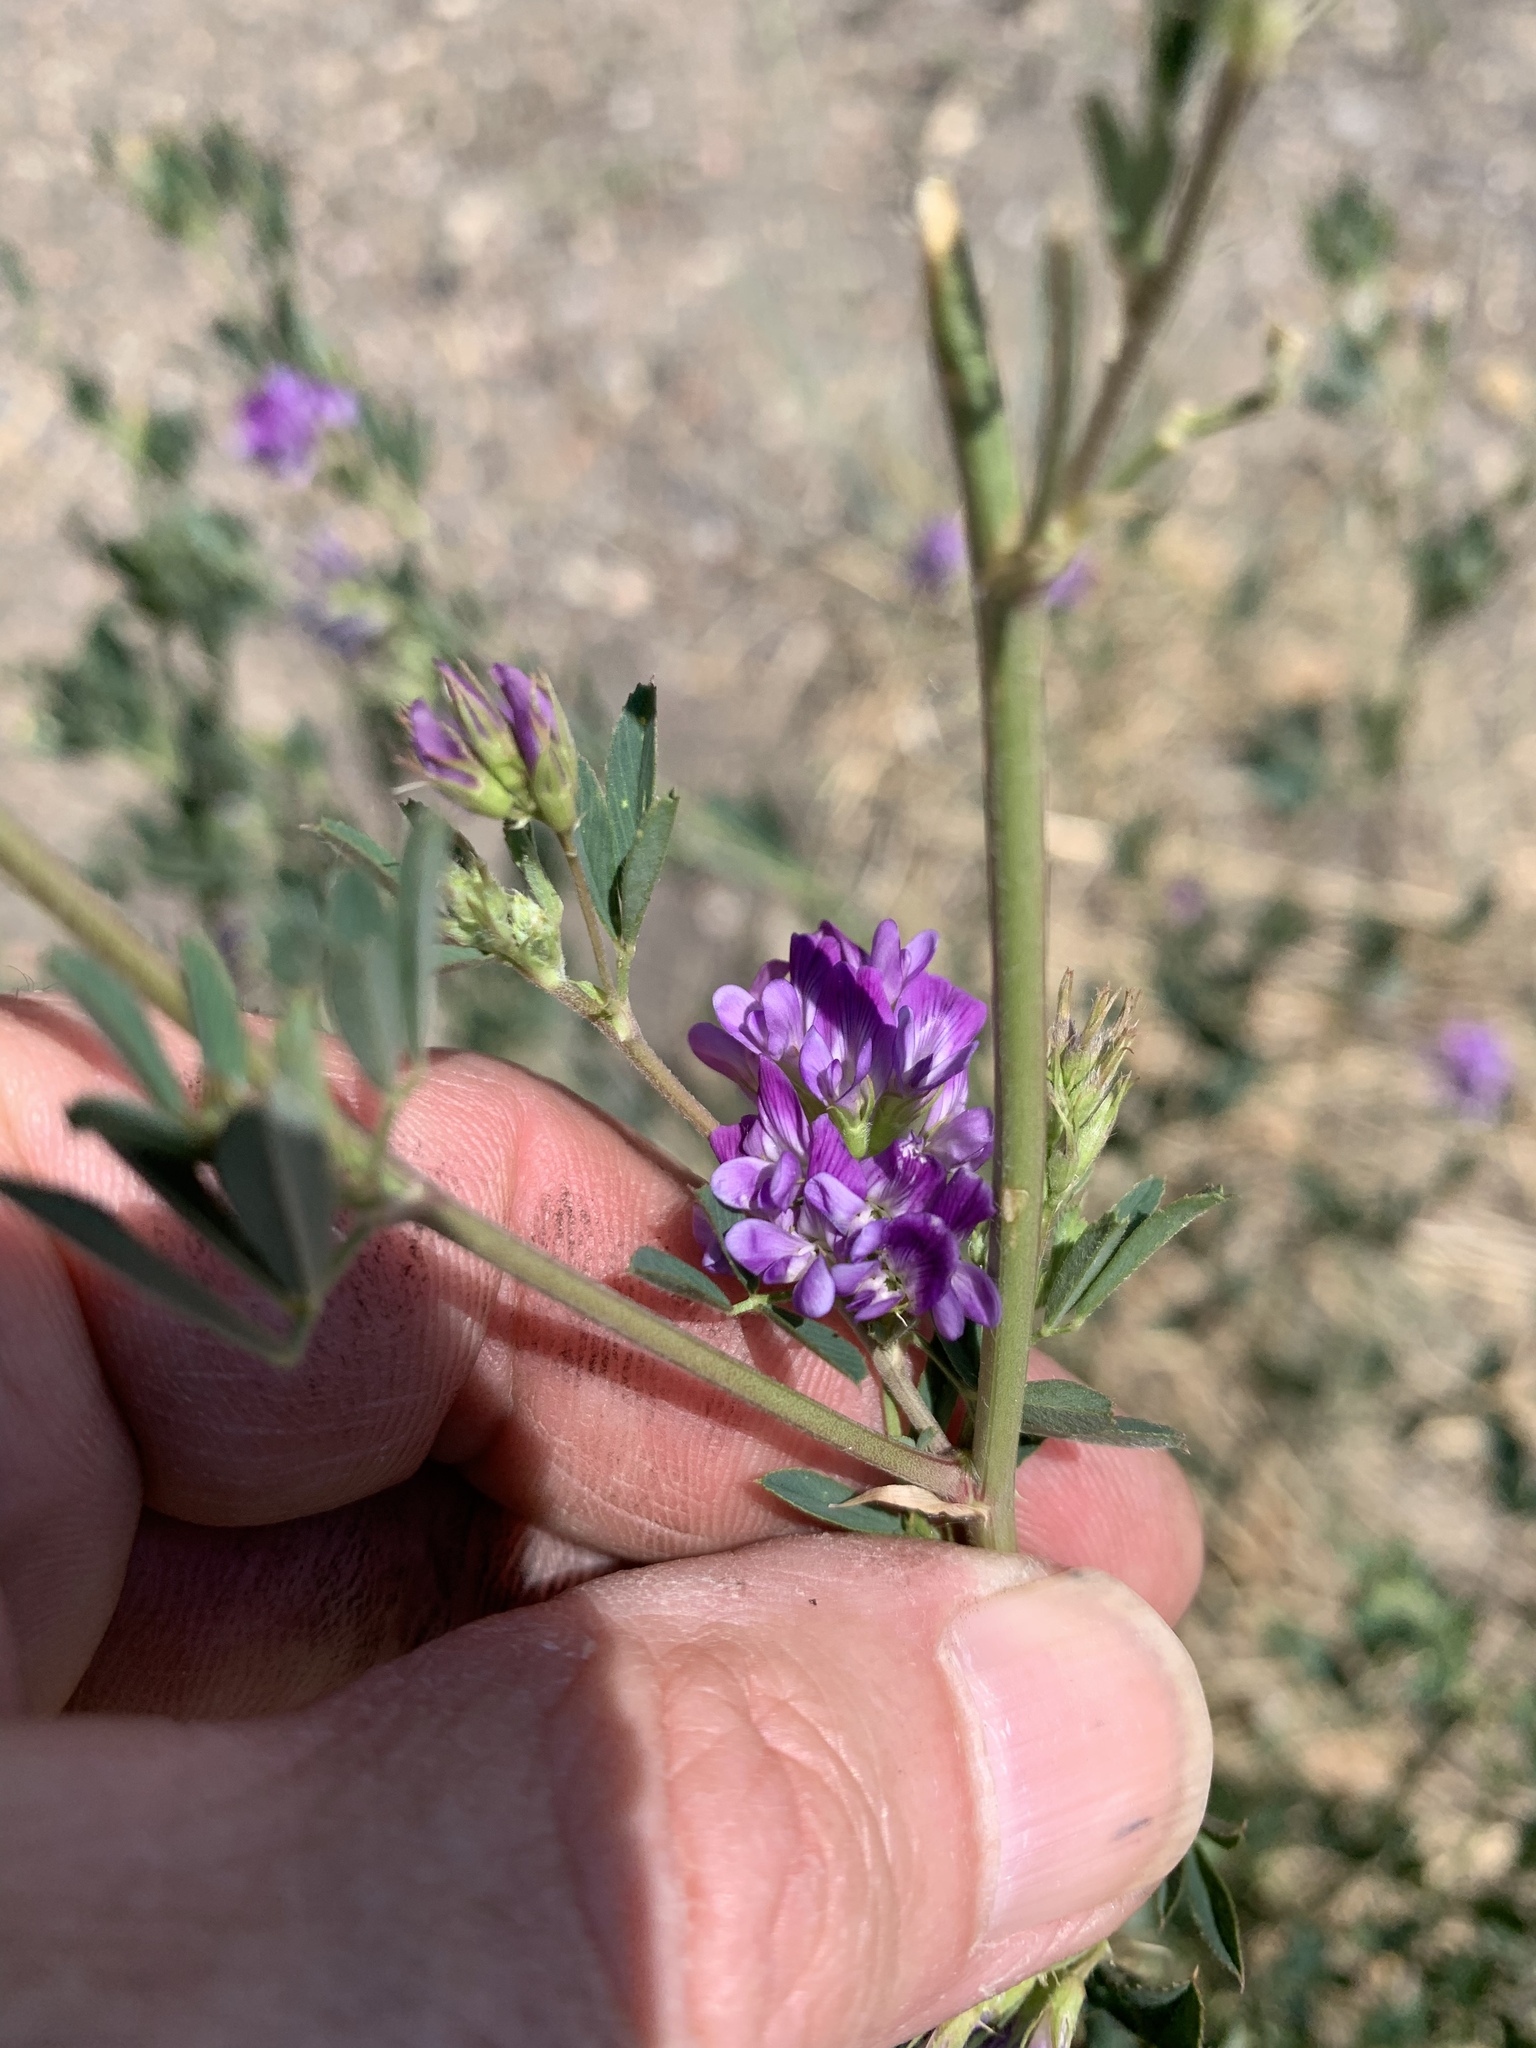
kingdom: Plantae
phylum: Tracheophyta
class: Magnoliopsida
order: Fabales
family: Fabaceae
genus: Medicago
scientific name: Medicago sativa
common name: Alfalfa
